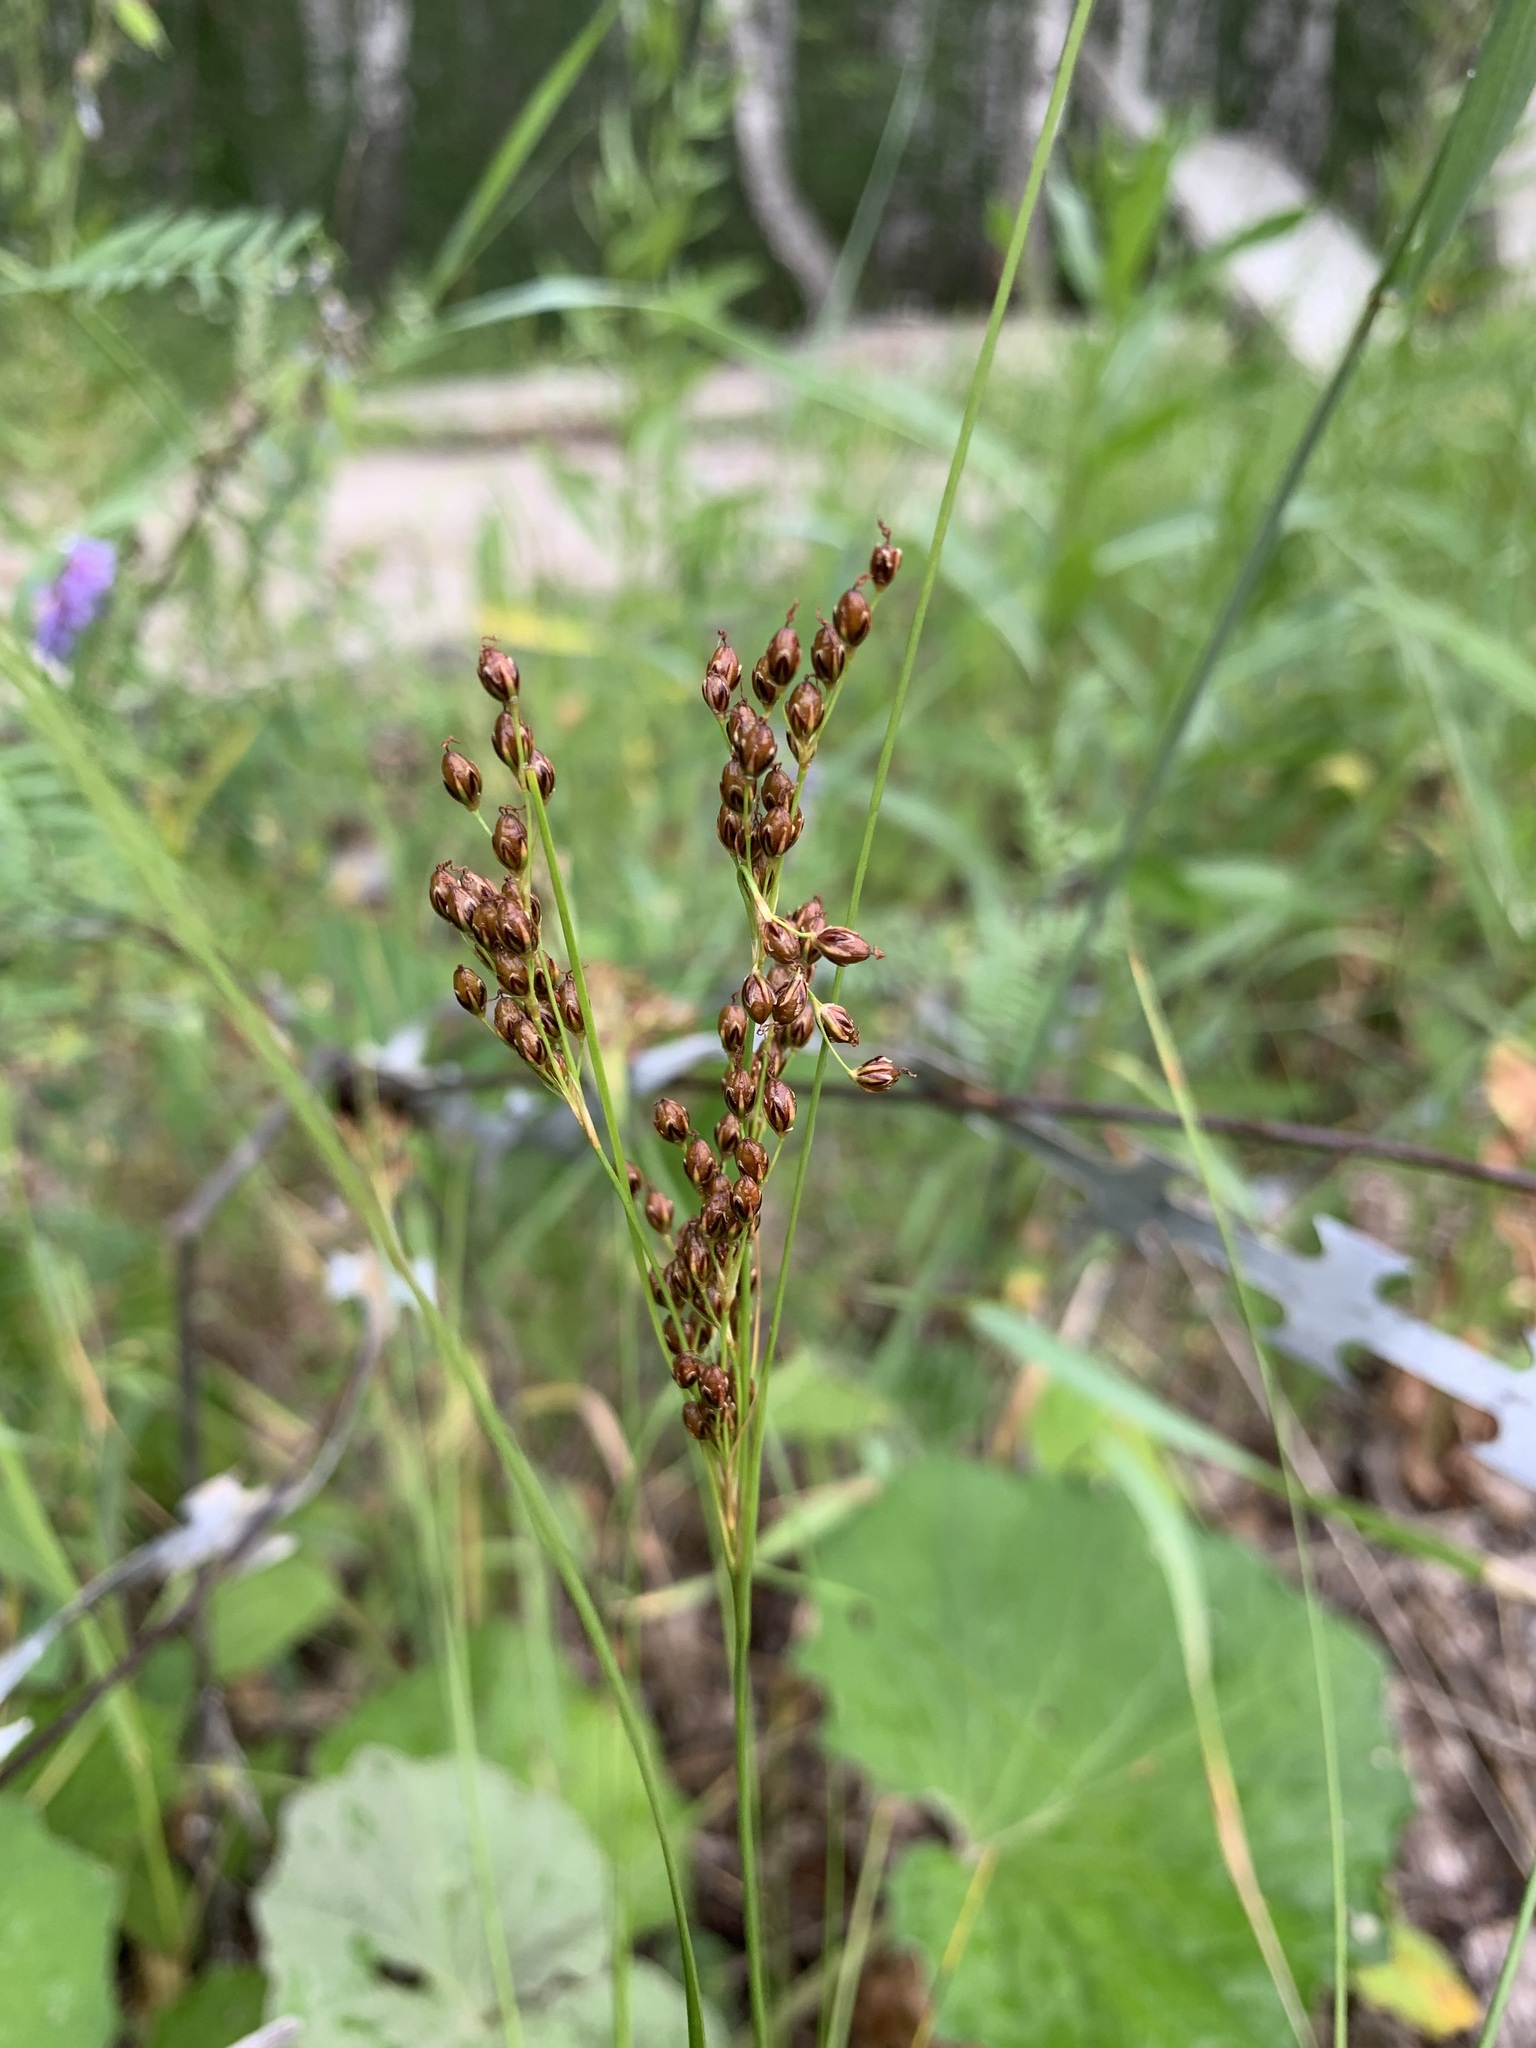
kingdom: Plantae
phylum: Tracheophyta
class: Liliopsida
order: Poales
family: Juncaceae
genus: Juncus
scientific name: Juncus compressus
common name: Round-fruited rush
